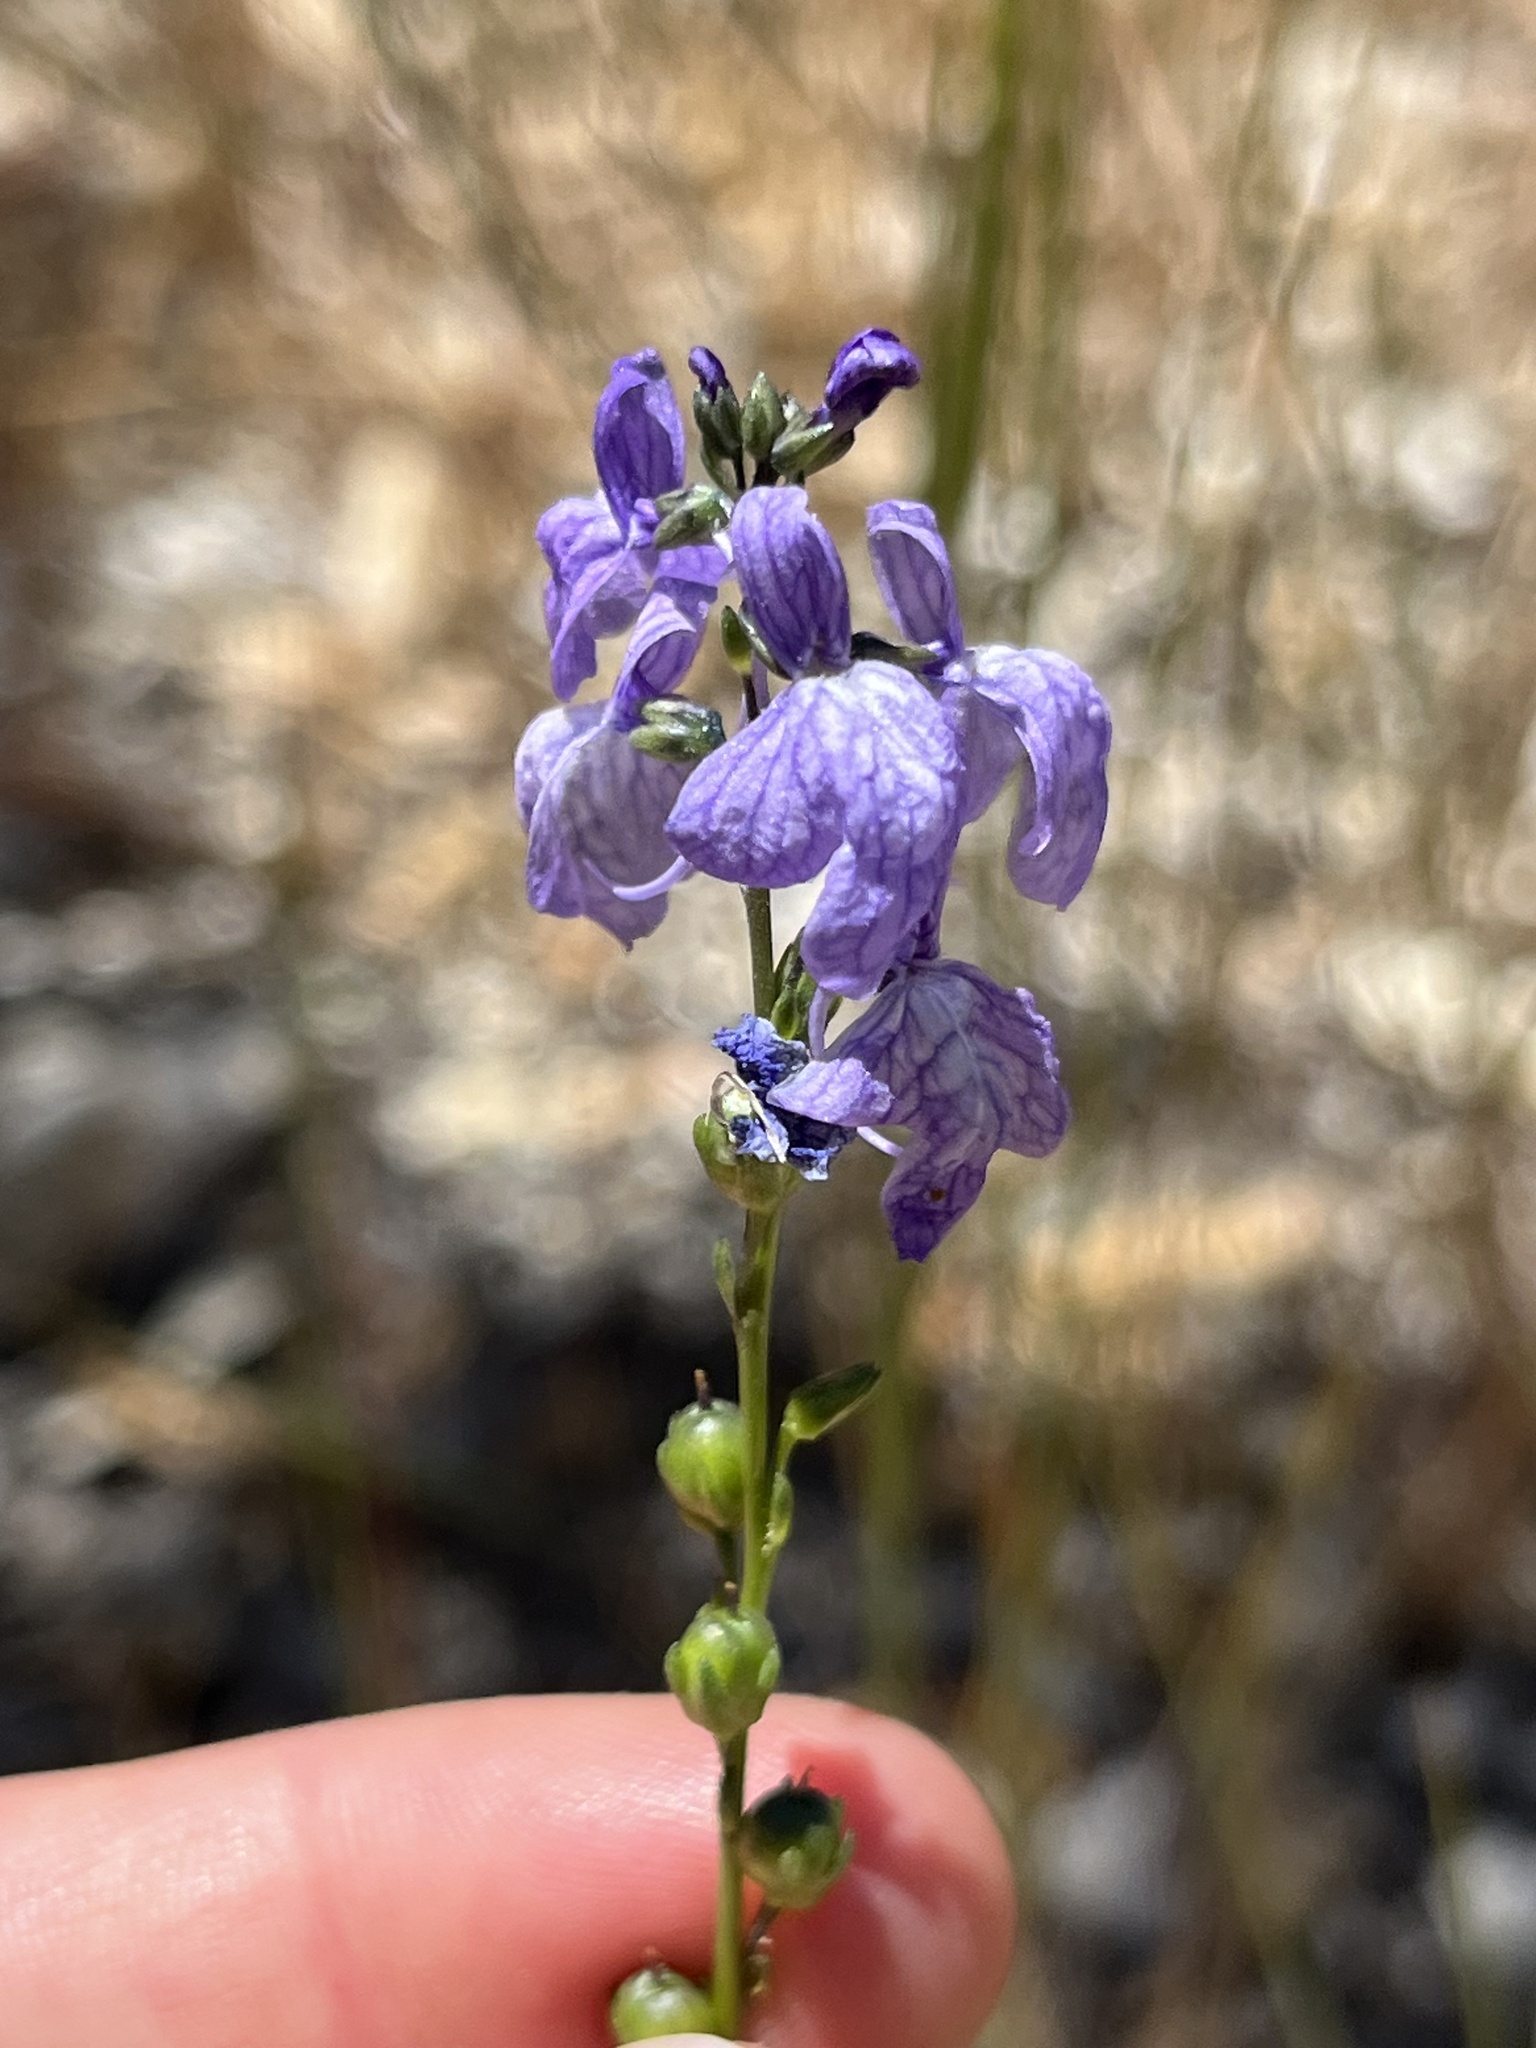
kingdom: Plantae
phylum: Tracheophyta
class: Magnoliopsida
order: Lamiales
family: Plantaginaceae
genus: Nuttallanthus
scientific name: Nuttallanthus texanus
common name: Texas toadflax
